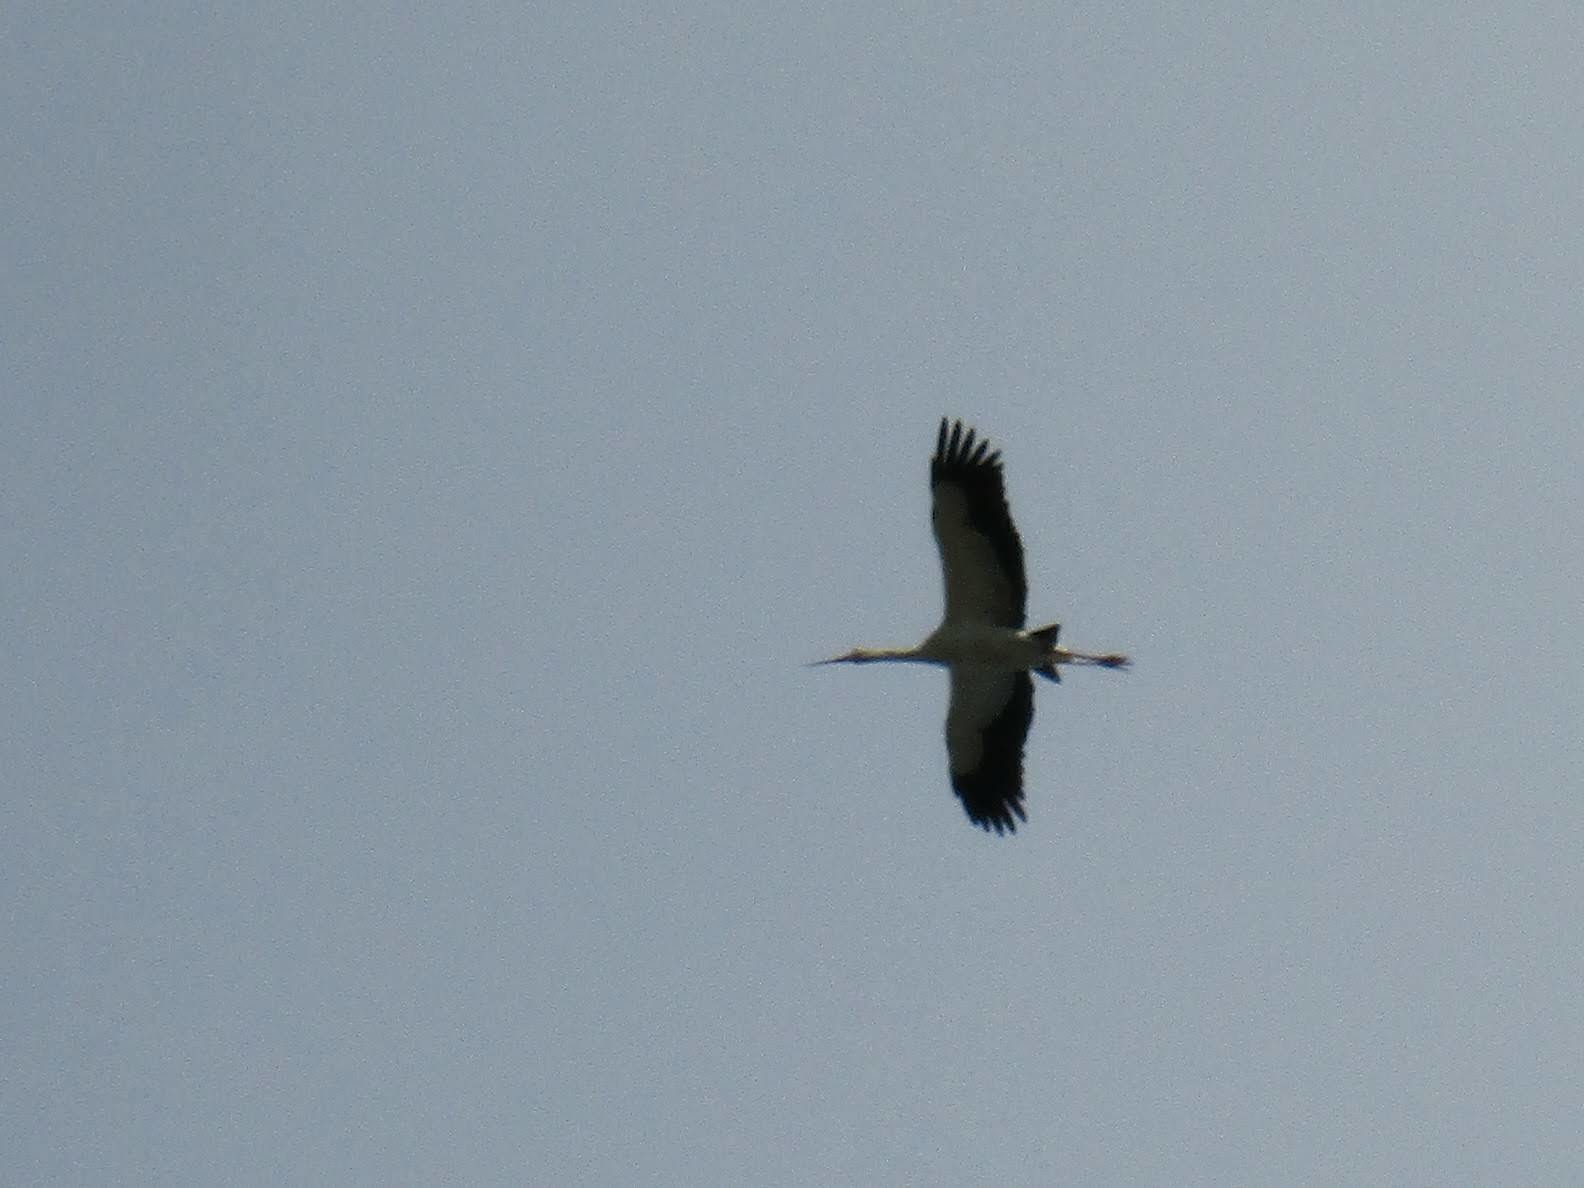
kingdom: Animalia
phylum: Chordata
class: Aves
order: Ciconiiformes
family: Ciconiidae
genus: Ciconia
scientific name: Ciconia maguari
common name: Maguari stork
